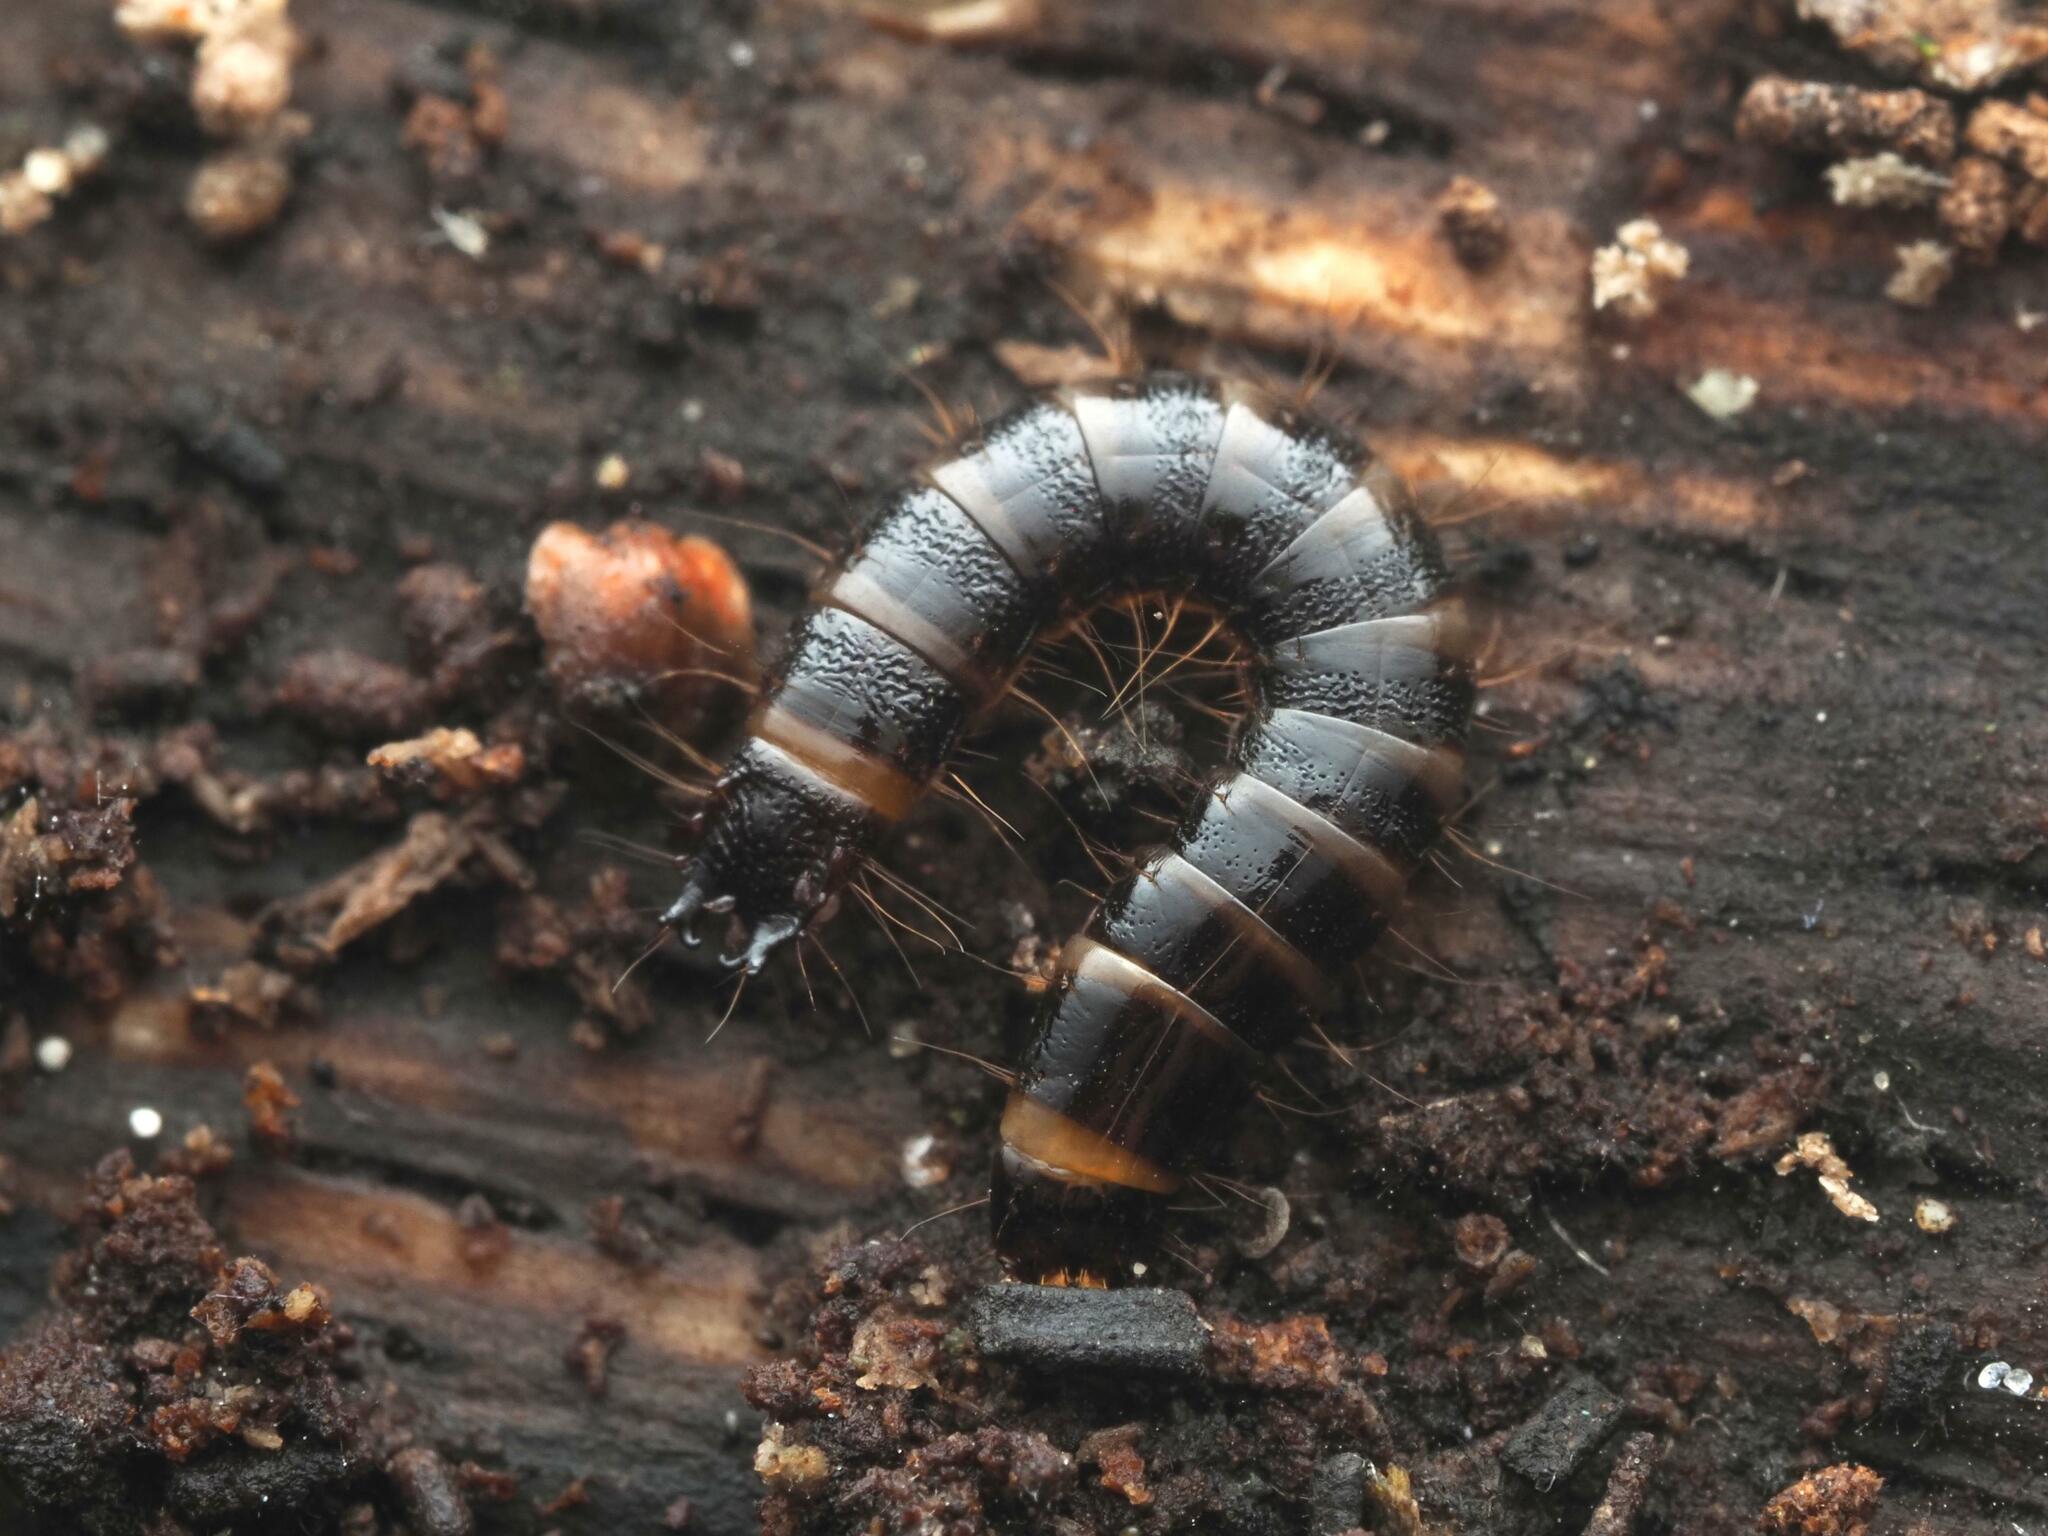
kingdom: Animalia
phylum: Arthropoda
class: Insecta
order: Coleoptera
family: Elateridae
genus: Stenagostus
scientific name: Stenagostus rhombeus
